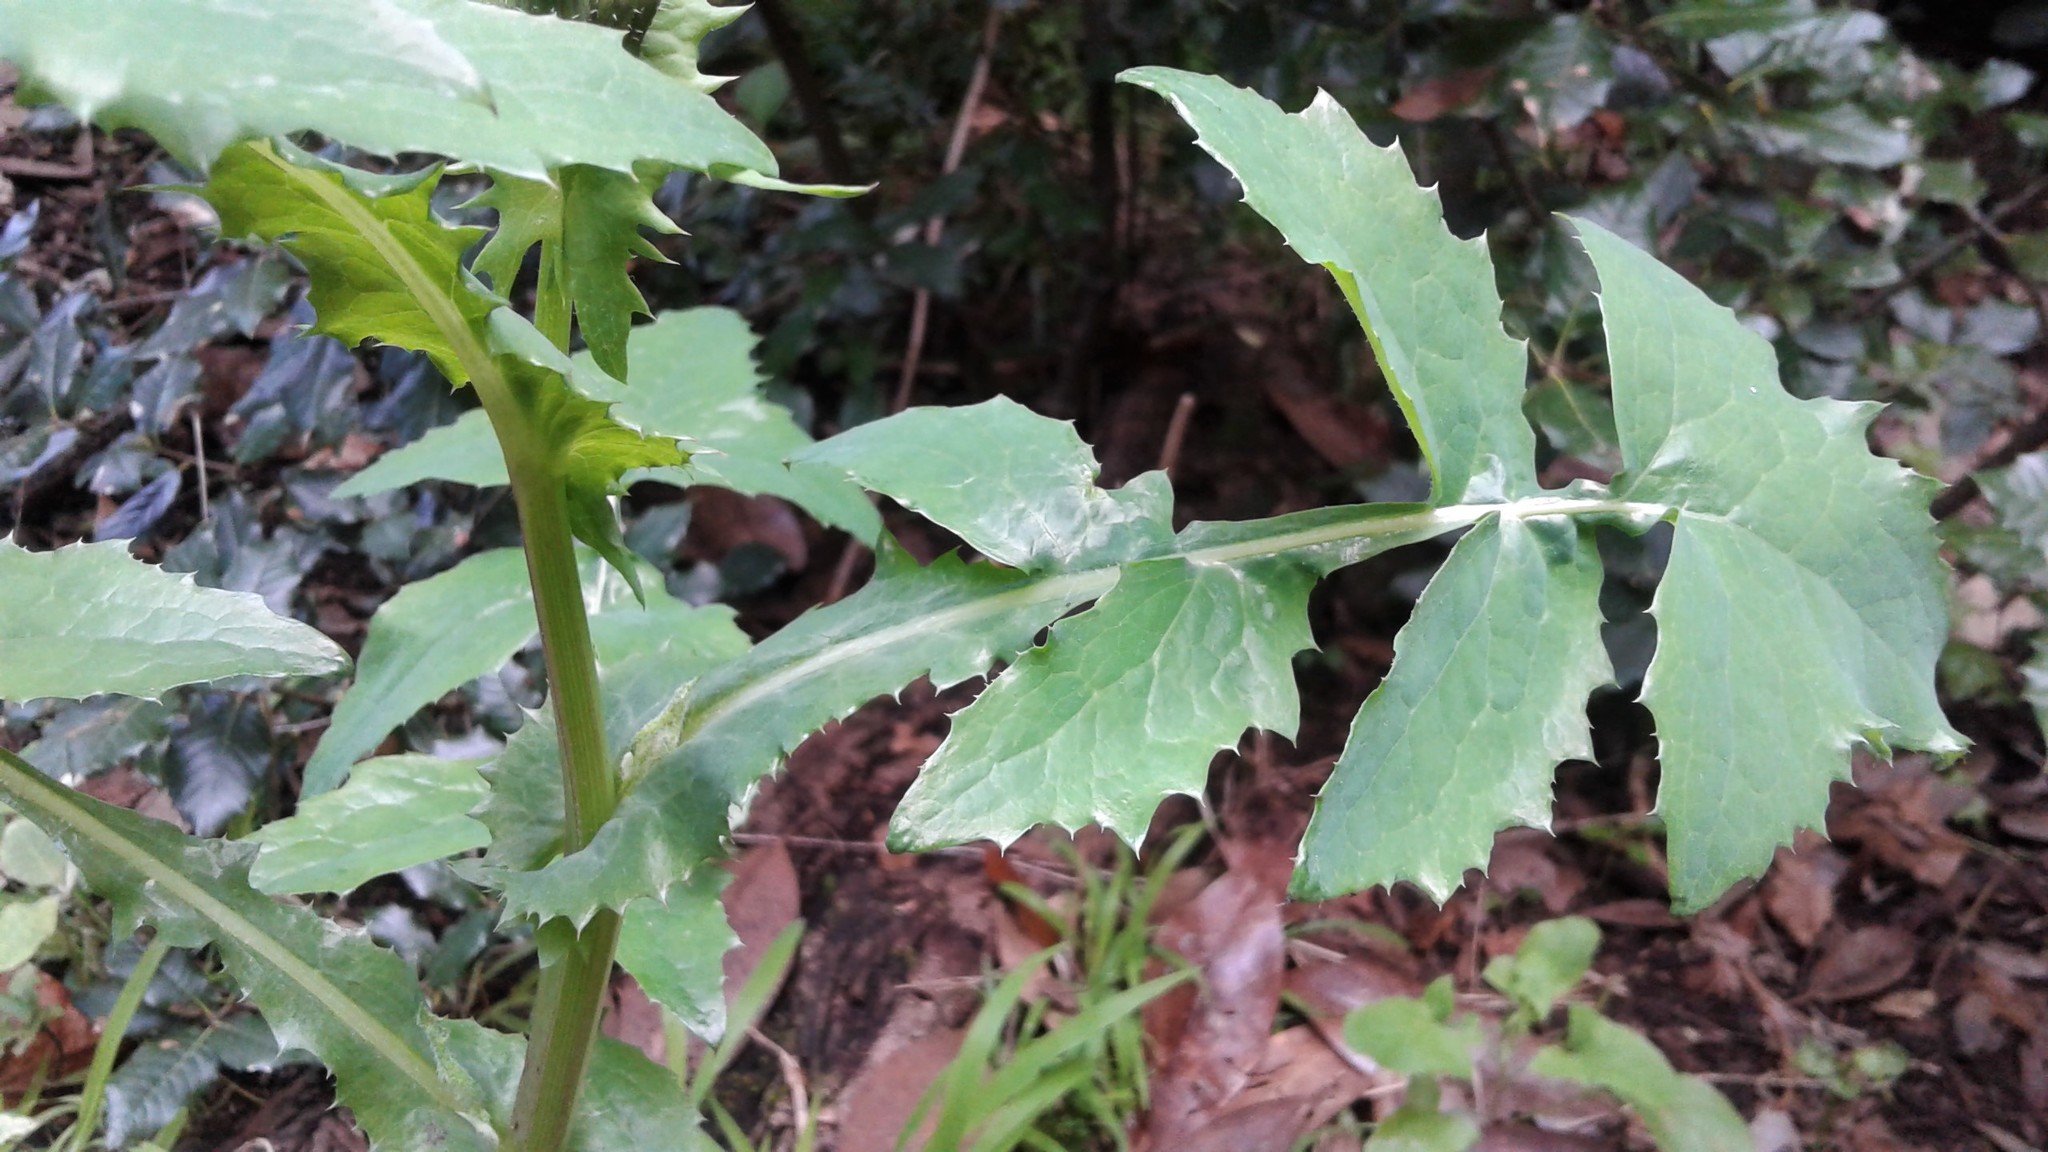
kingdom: Plantae
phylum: Tracheophyta
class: Magnoliopsida
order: Asterales
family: Asteraceae
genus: Sonchus
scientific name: Sonchus oleraceus
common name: Common sowthistle
